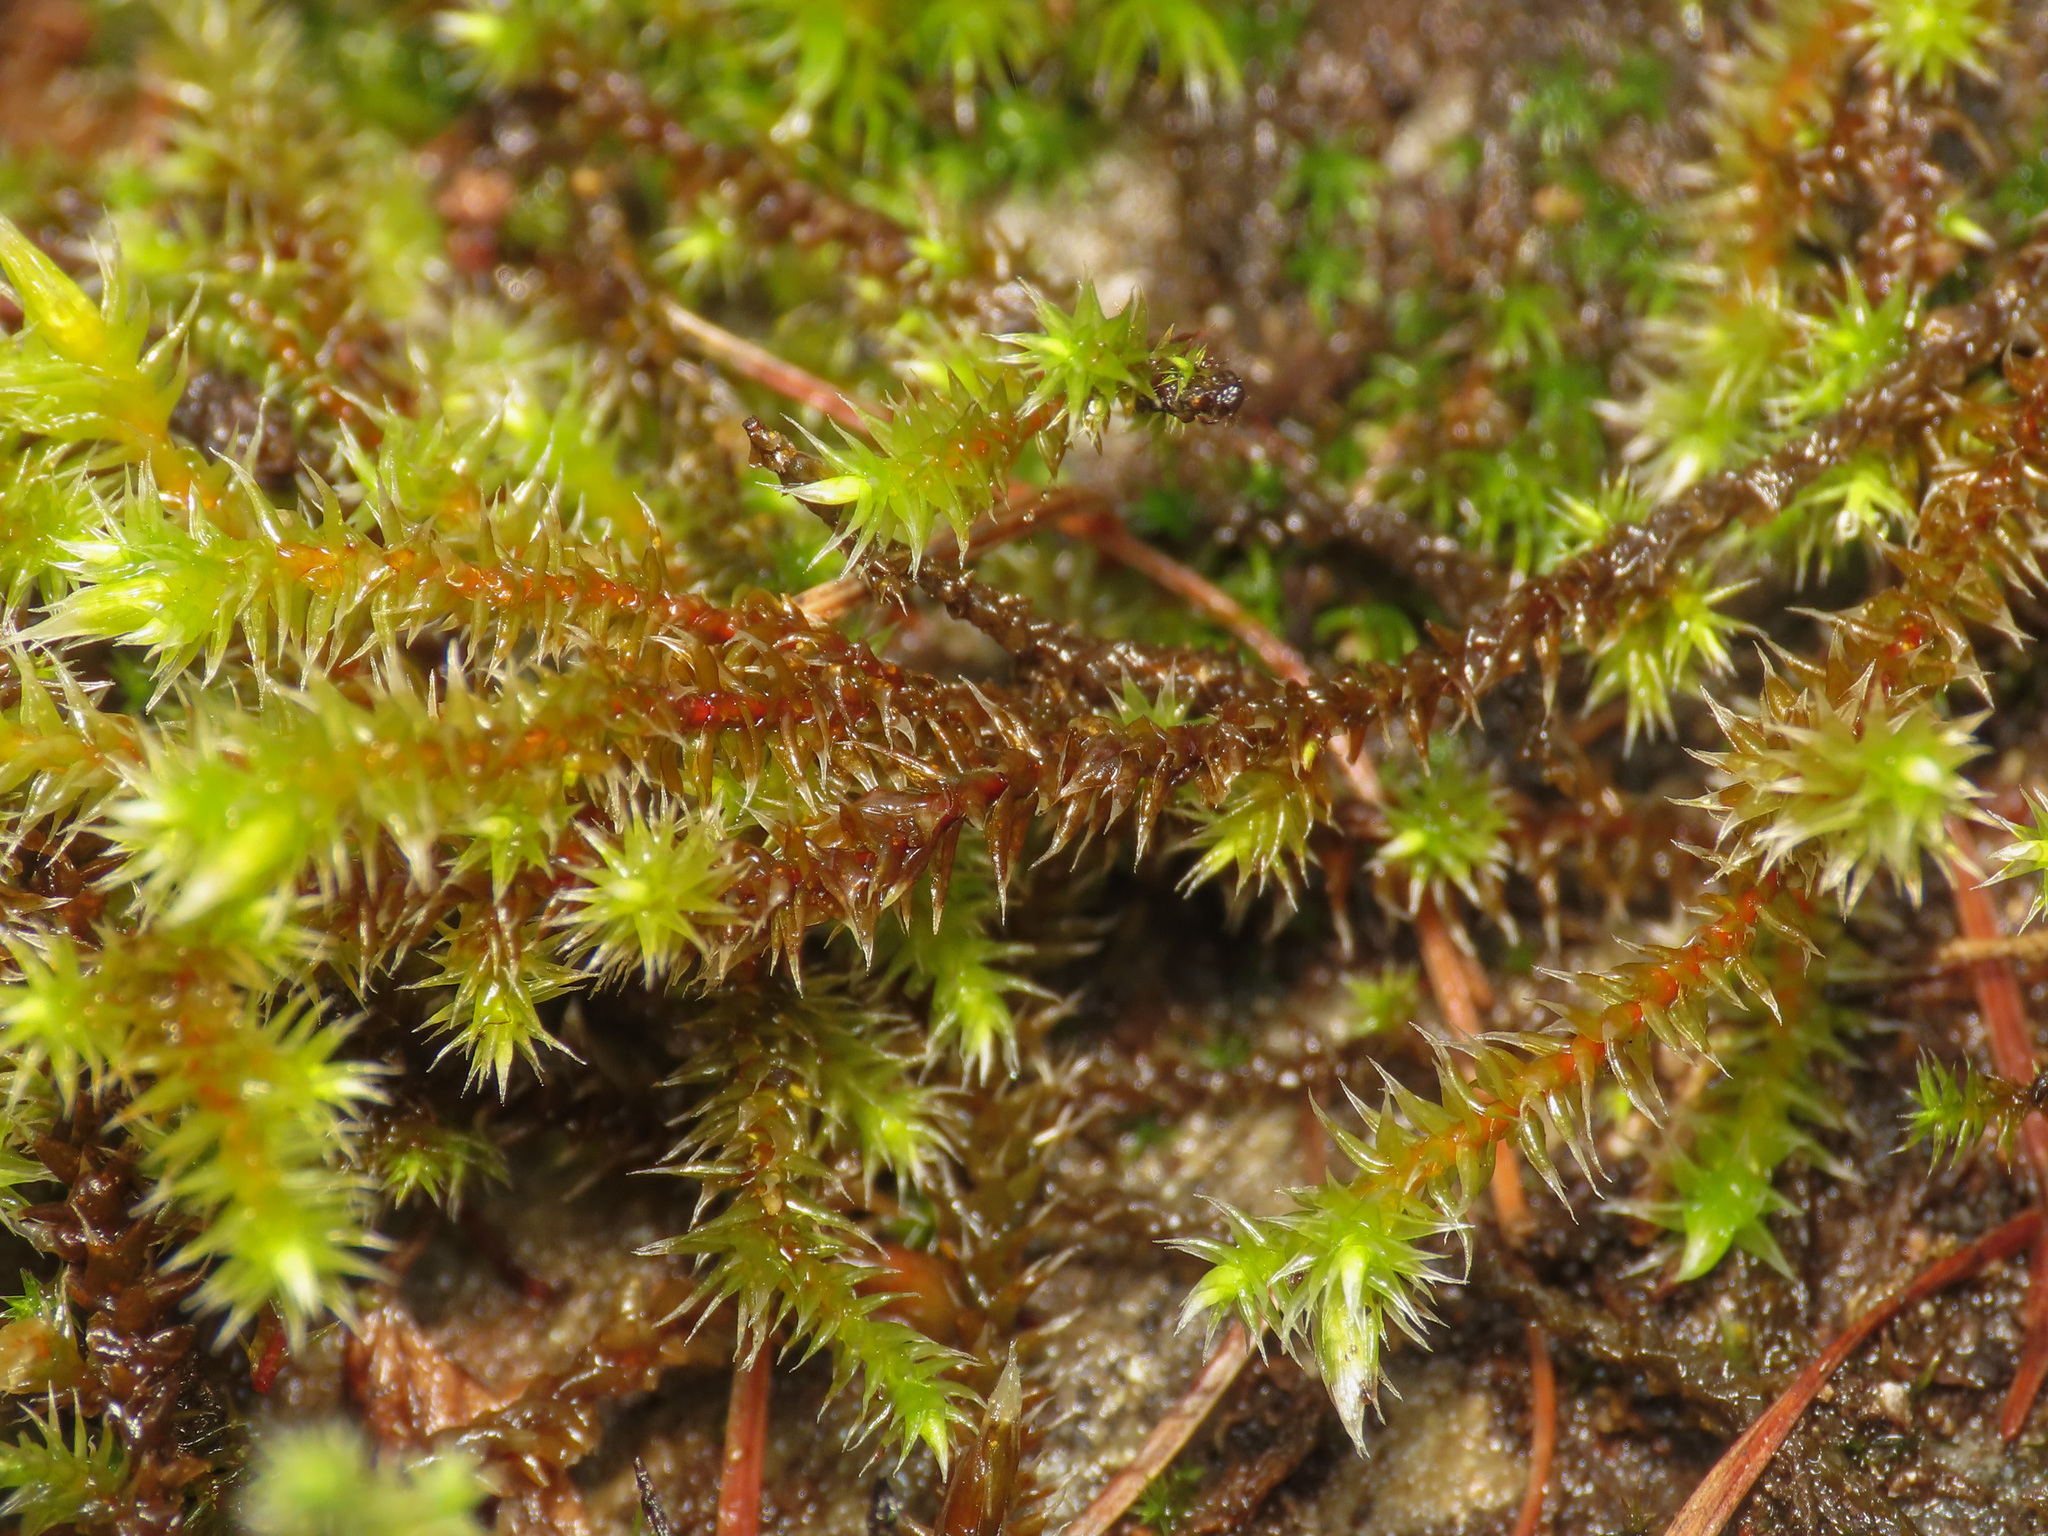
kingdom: Plantae
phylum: Bryophyta
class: Bryopsida
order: Hedwigiales
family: Hedwigiaceae
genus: Hedwigia
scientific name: Hedwigia ciliata
